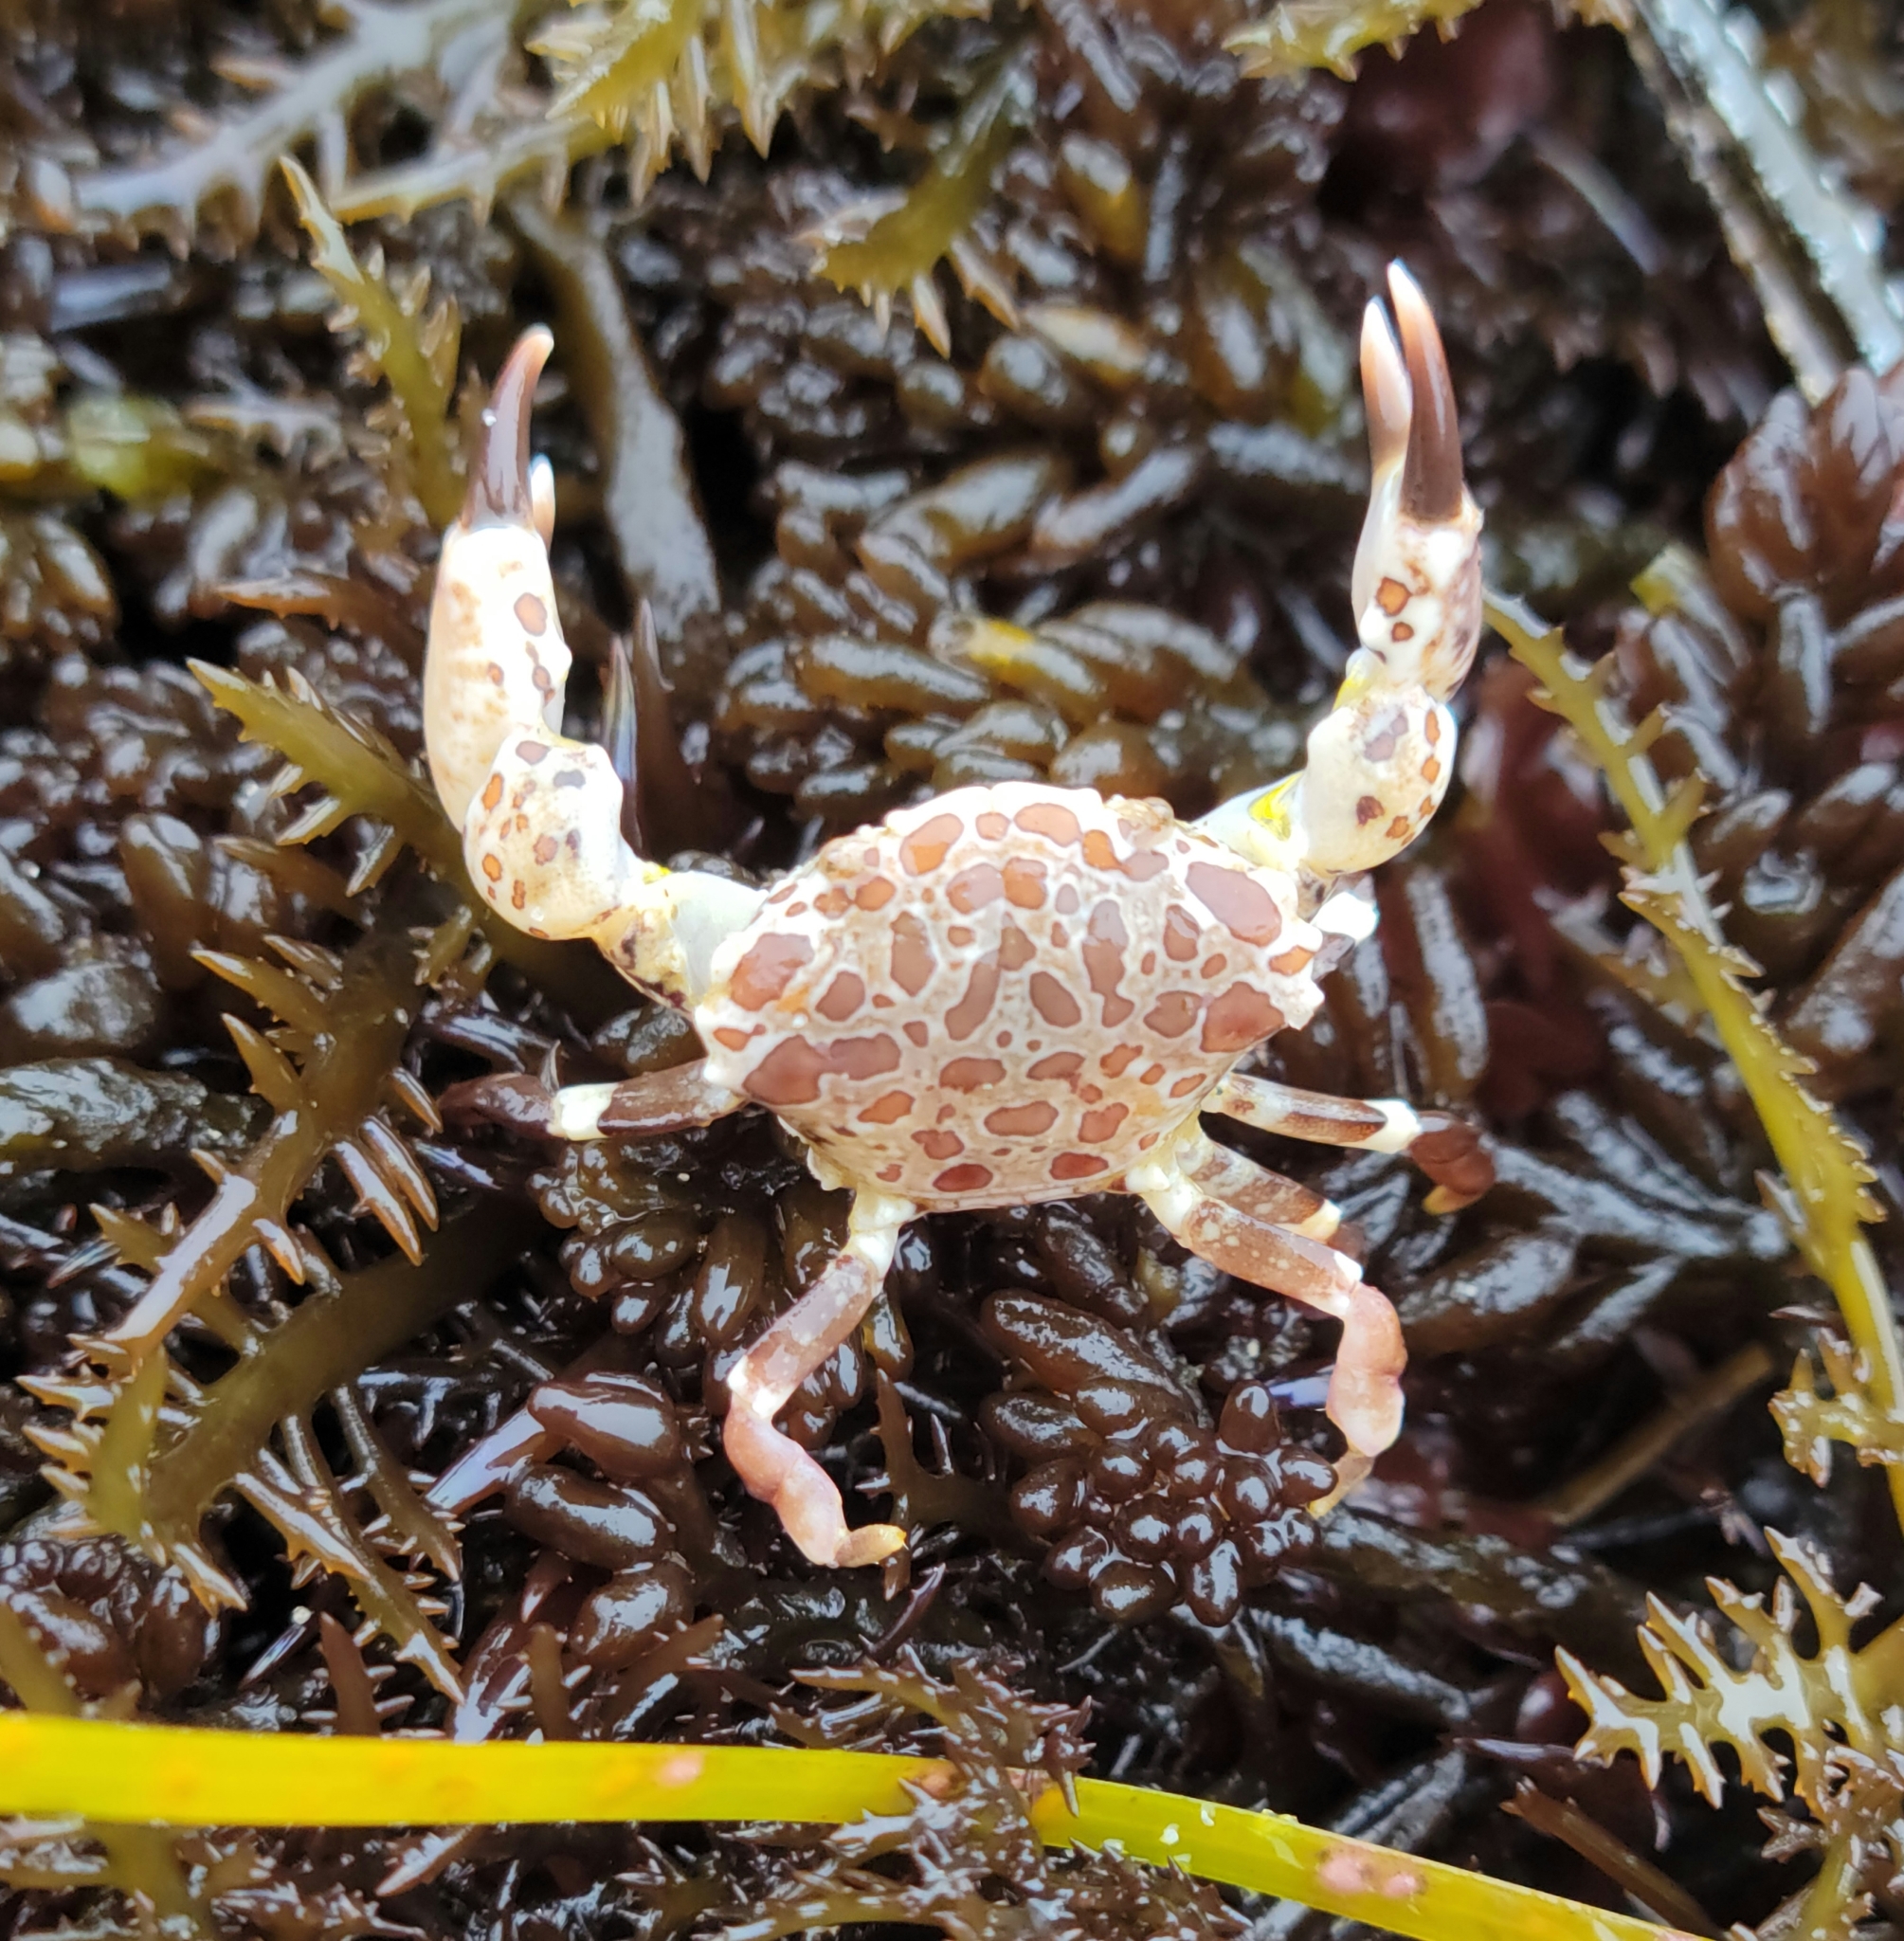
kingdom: Animalia
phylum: Arthropoda
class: Malacostraca
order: Decapoda
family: Panopeidae
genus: Lophopanopeus
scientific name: Lophopanopeus leucomanus
